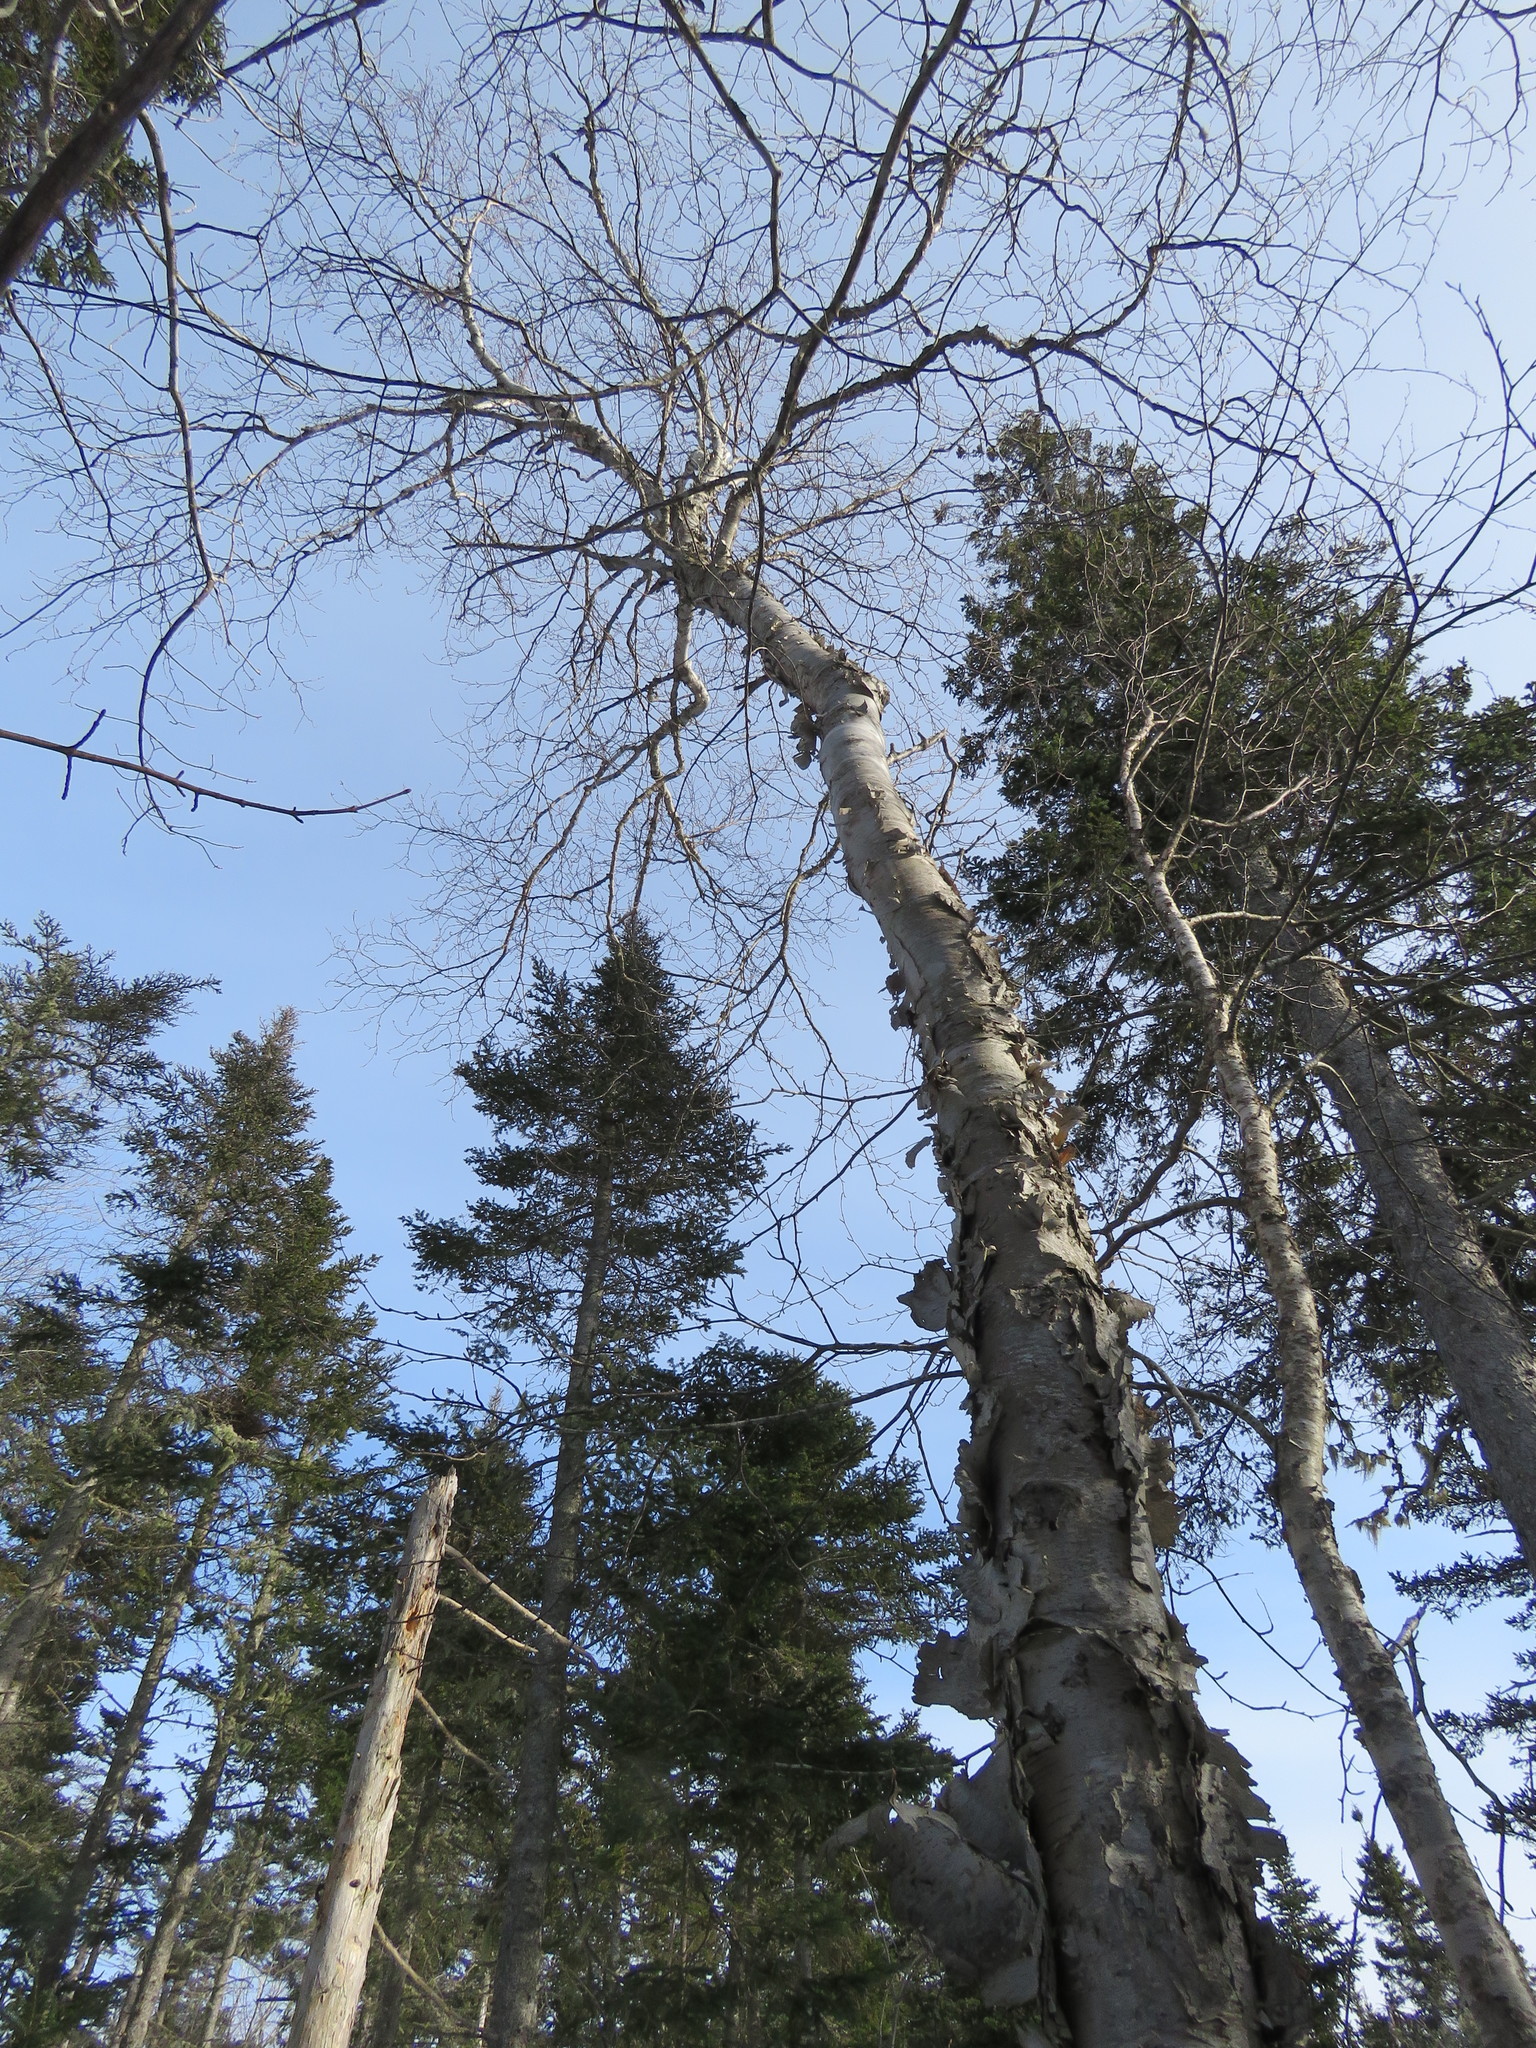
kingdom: Plantae
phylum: Tracheophyta
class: Magnoliopsida
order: Fagales
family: Betulaceae
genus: Betula
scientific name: Betula papyrifera
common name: Paper birch
